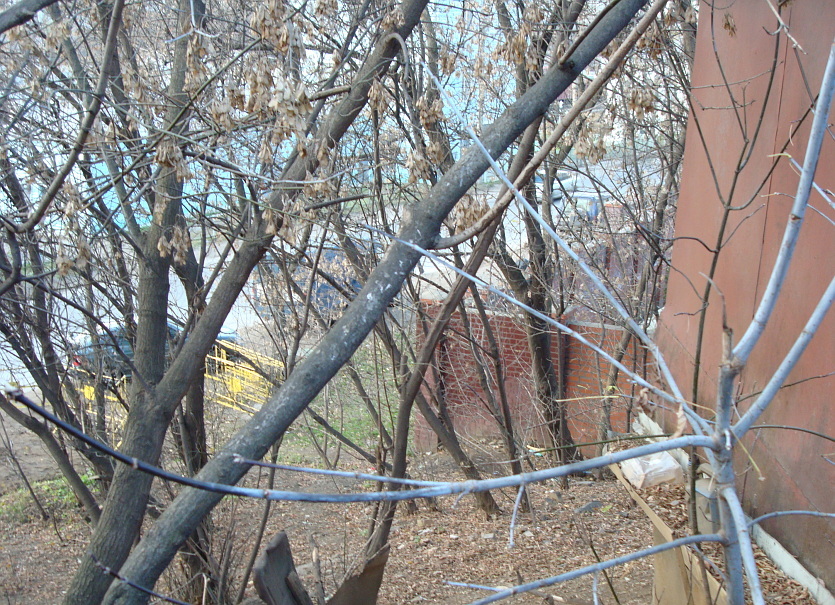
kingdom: Plantae
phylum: Tracheophyta
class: Magnoliopsida
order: Sapindales
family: Sapindaceae
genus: Acer
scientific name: Acer negundo
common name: Ashleaf maple
